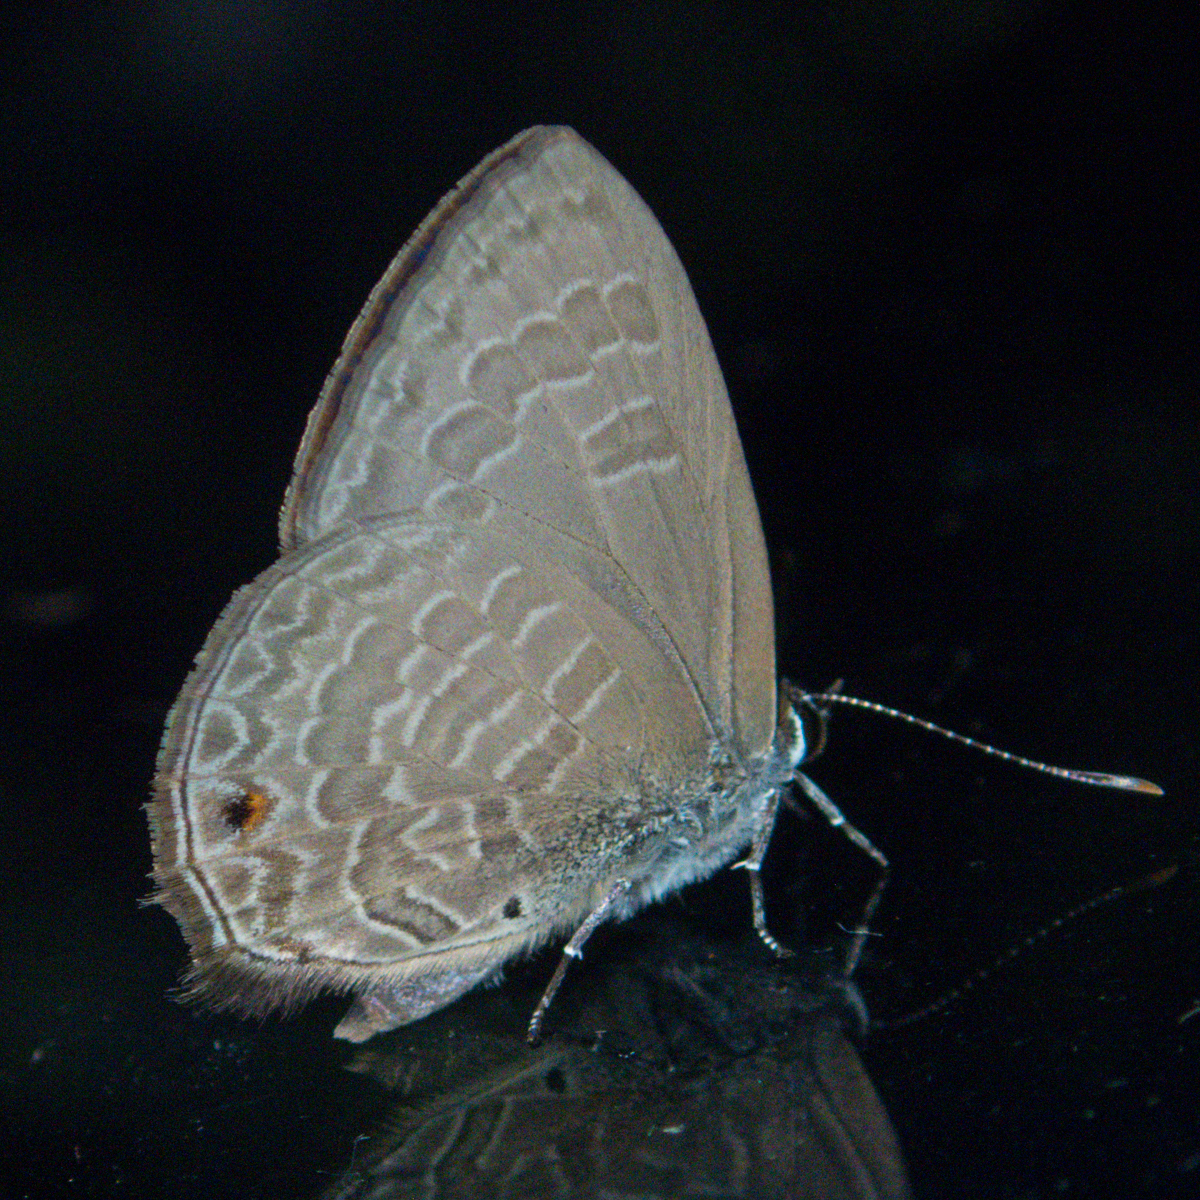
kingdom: Animalia
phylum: Arthropoda
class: Insecta
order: Lepidoptera
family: Lycaenidae
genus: Anthene
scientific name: Anthene emolus
